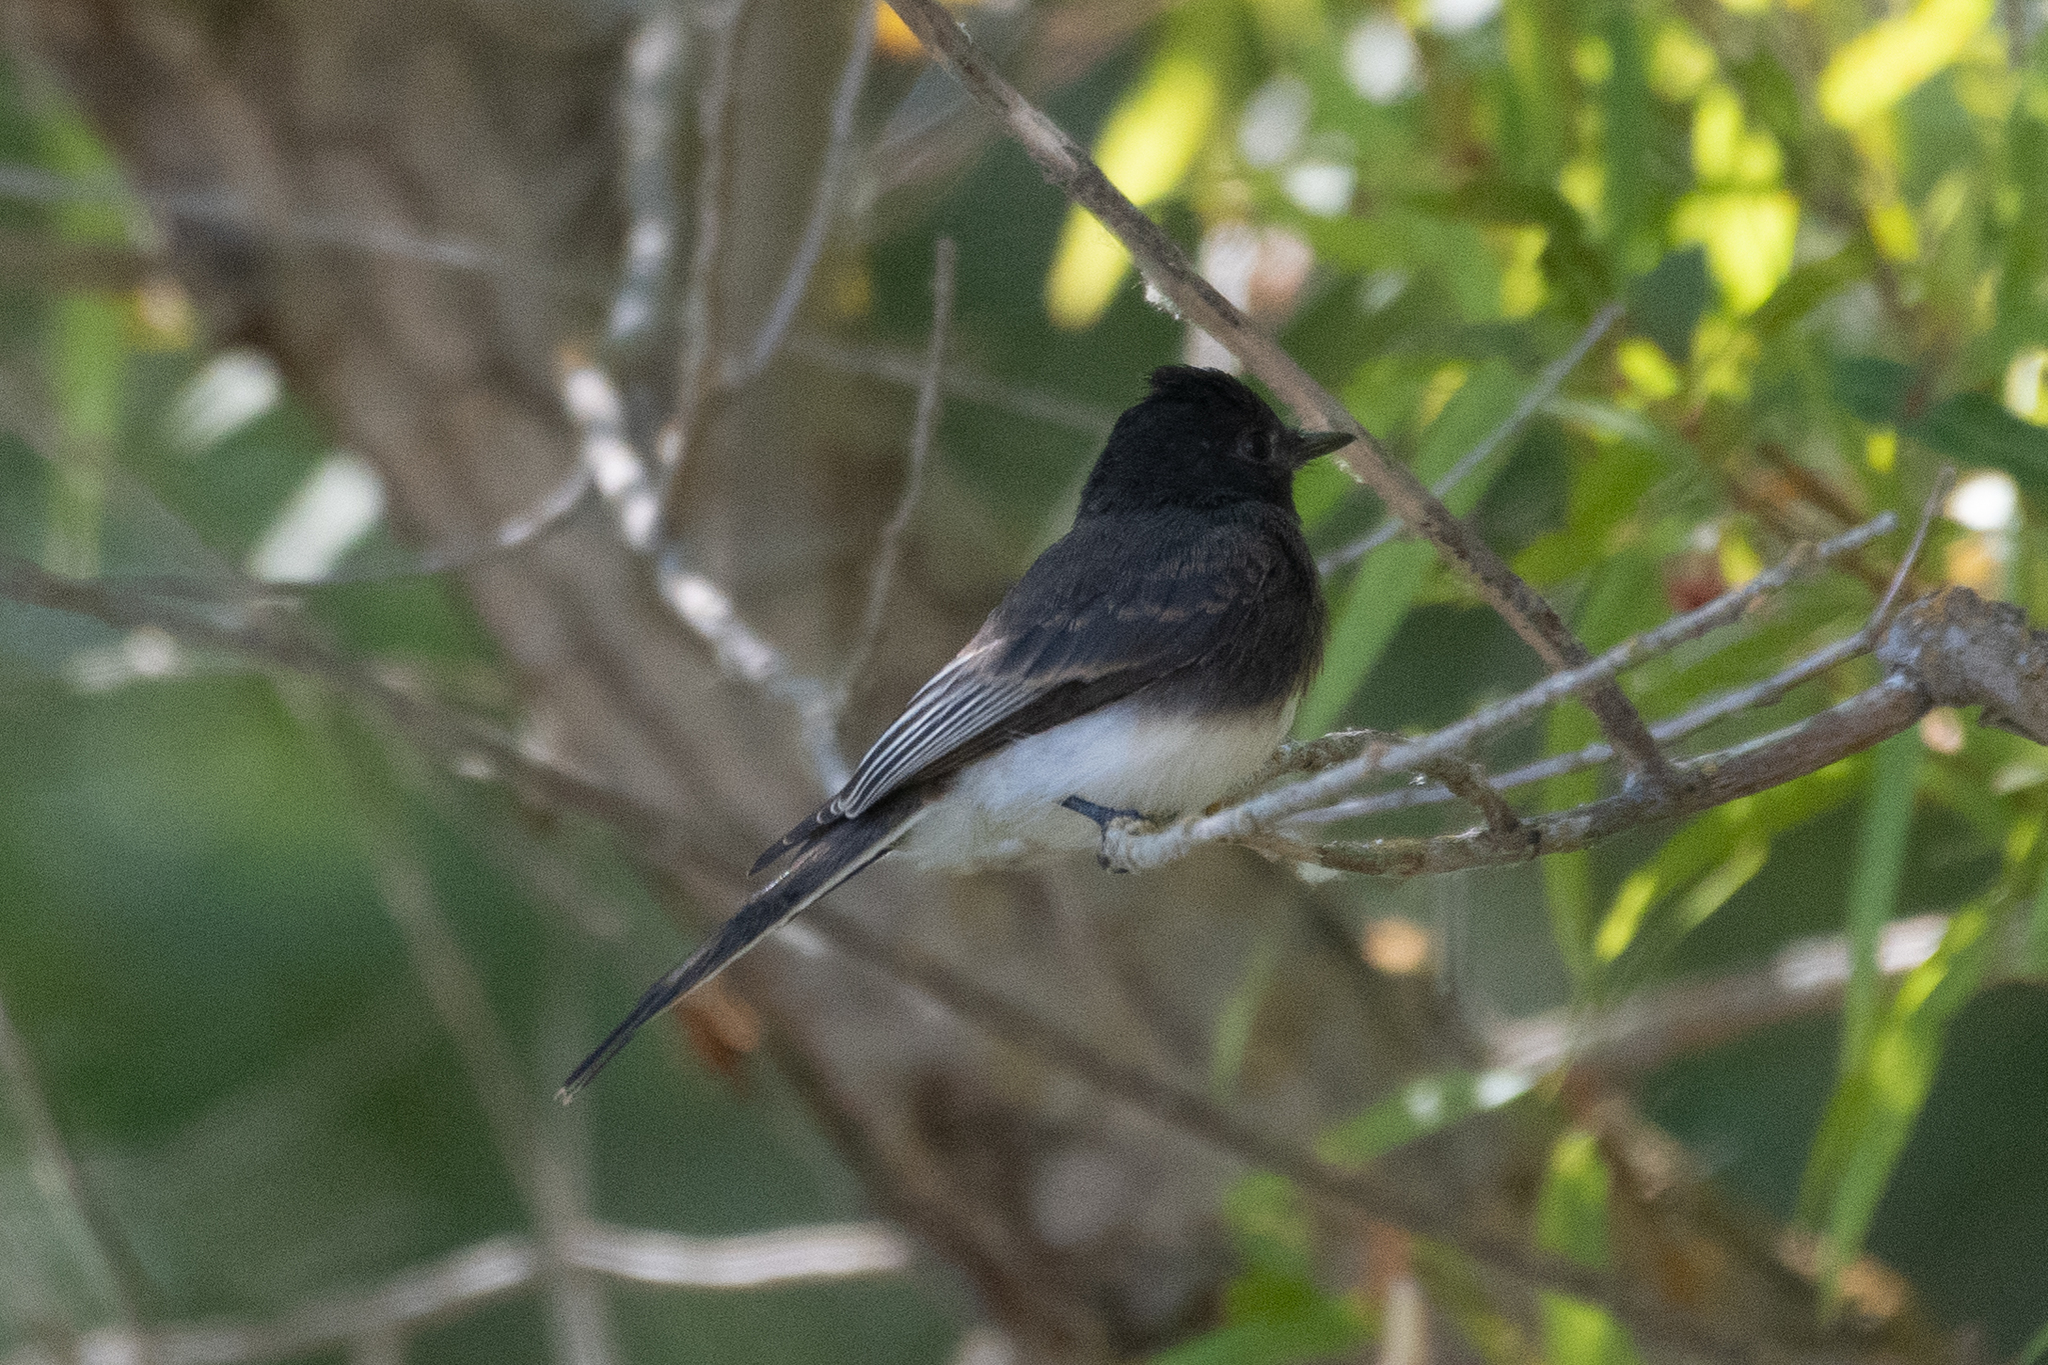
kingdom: Animalia
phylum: Chordata
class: Aves
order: Passeriformes
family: Tyrannidae
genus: Sayornis
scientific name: Sayornis nigricans
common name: Black phoebe
